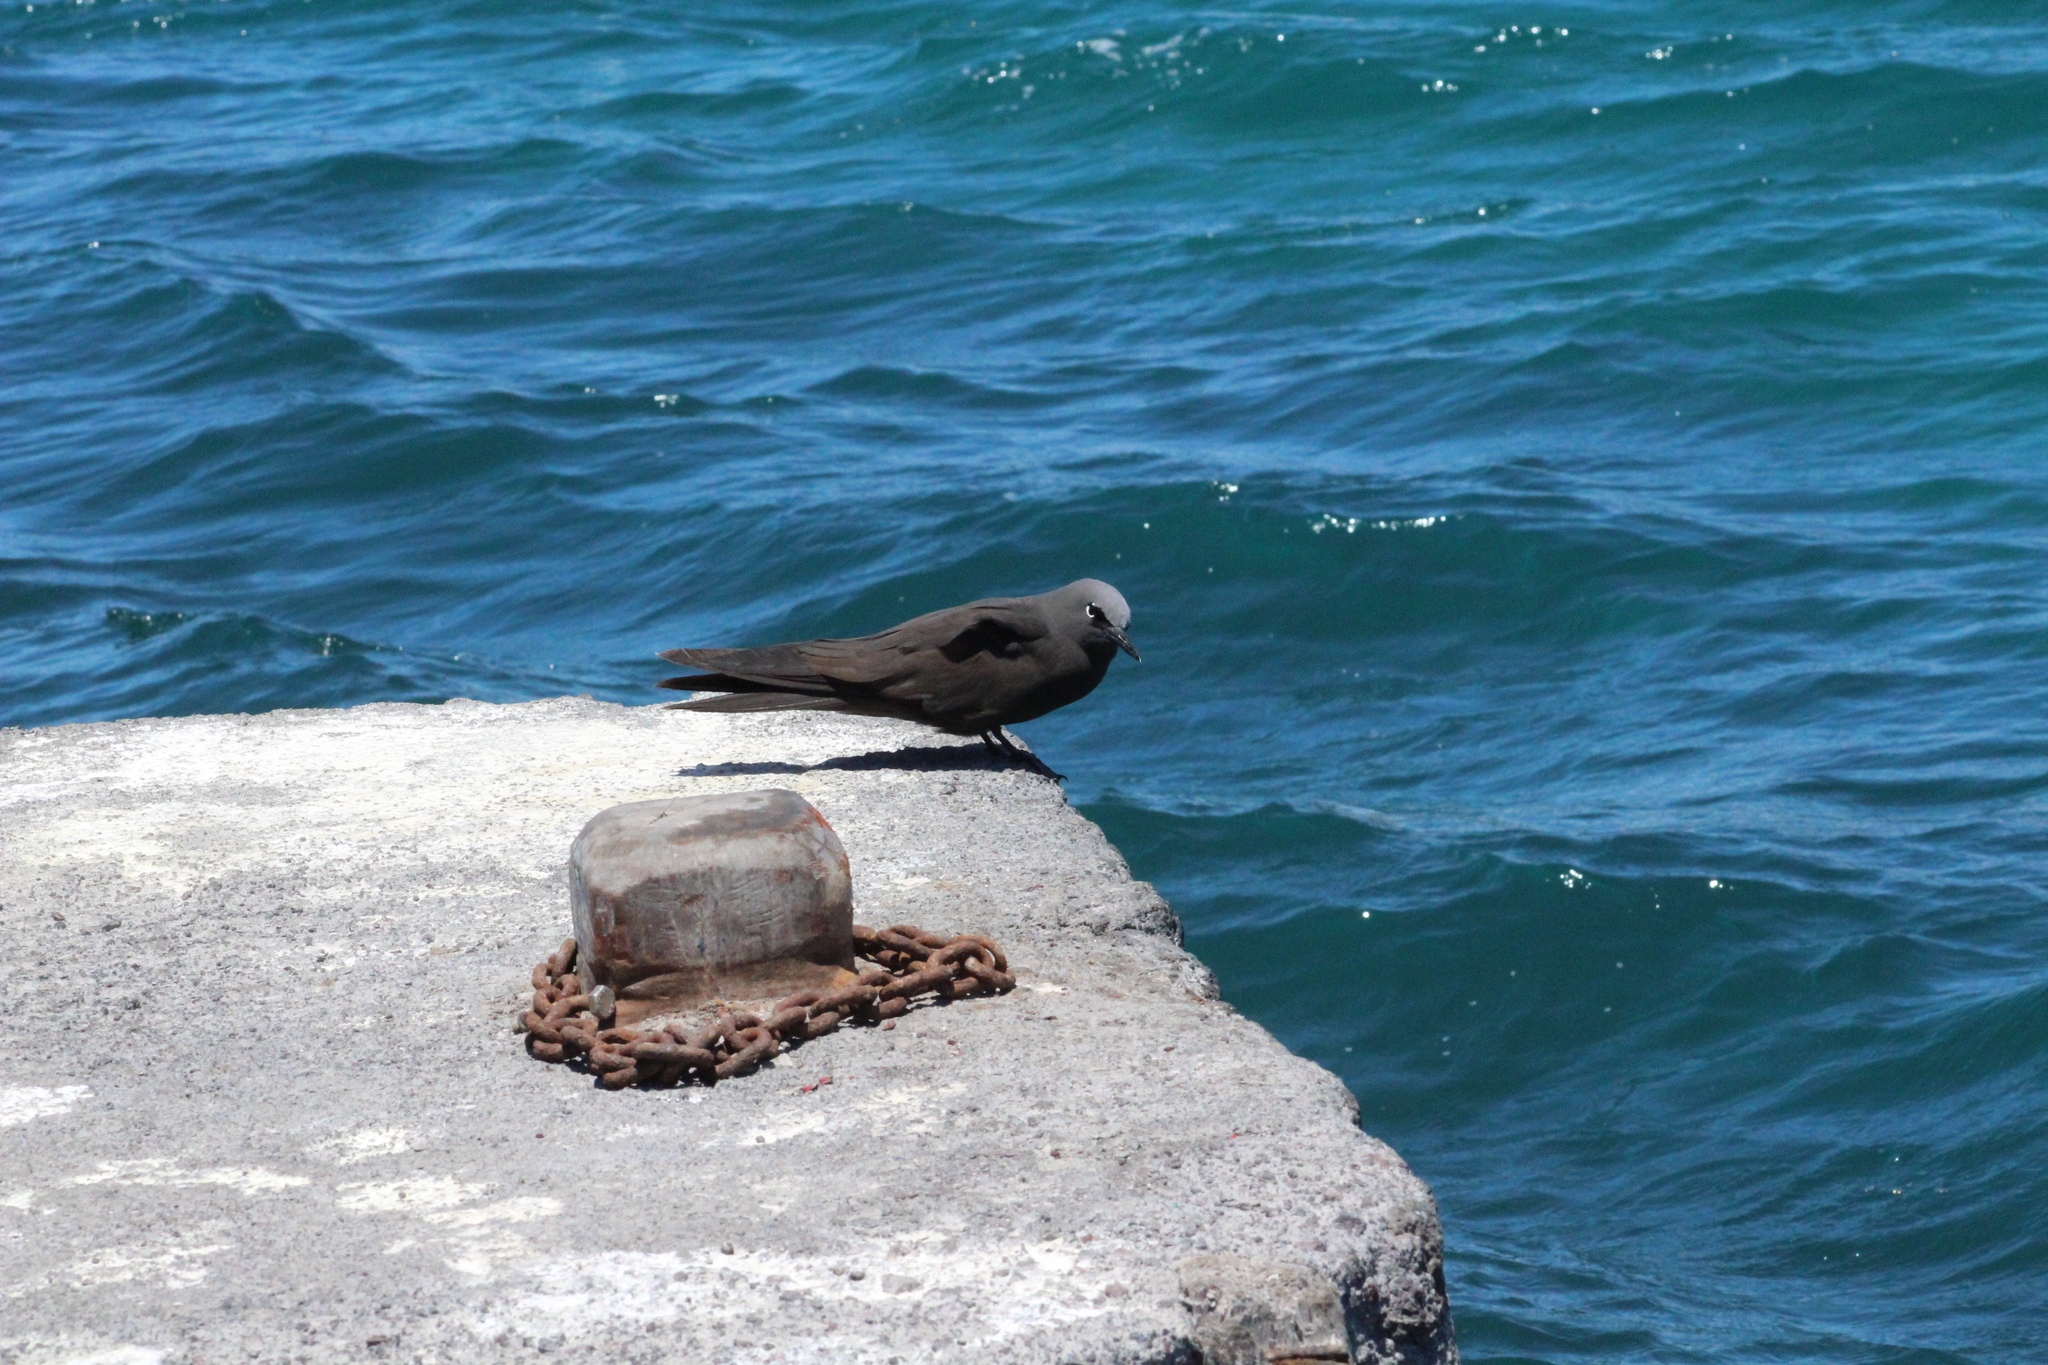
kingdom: Animalia
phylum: Chordata
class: Aves
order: Charadriiformes
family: Laridae
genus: Anous
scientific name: Anous stolidus
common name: Brown noddy
